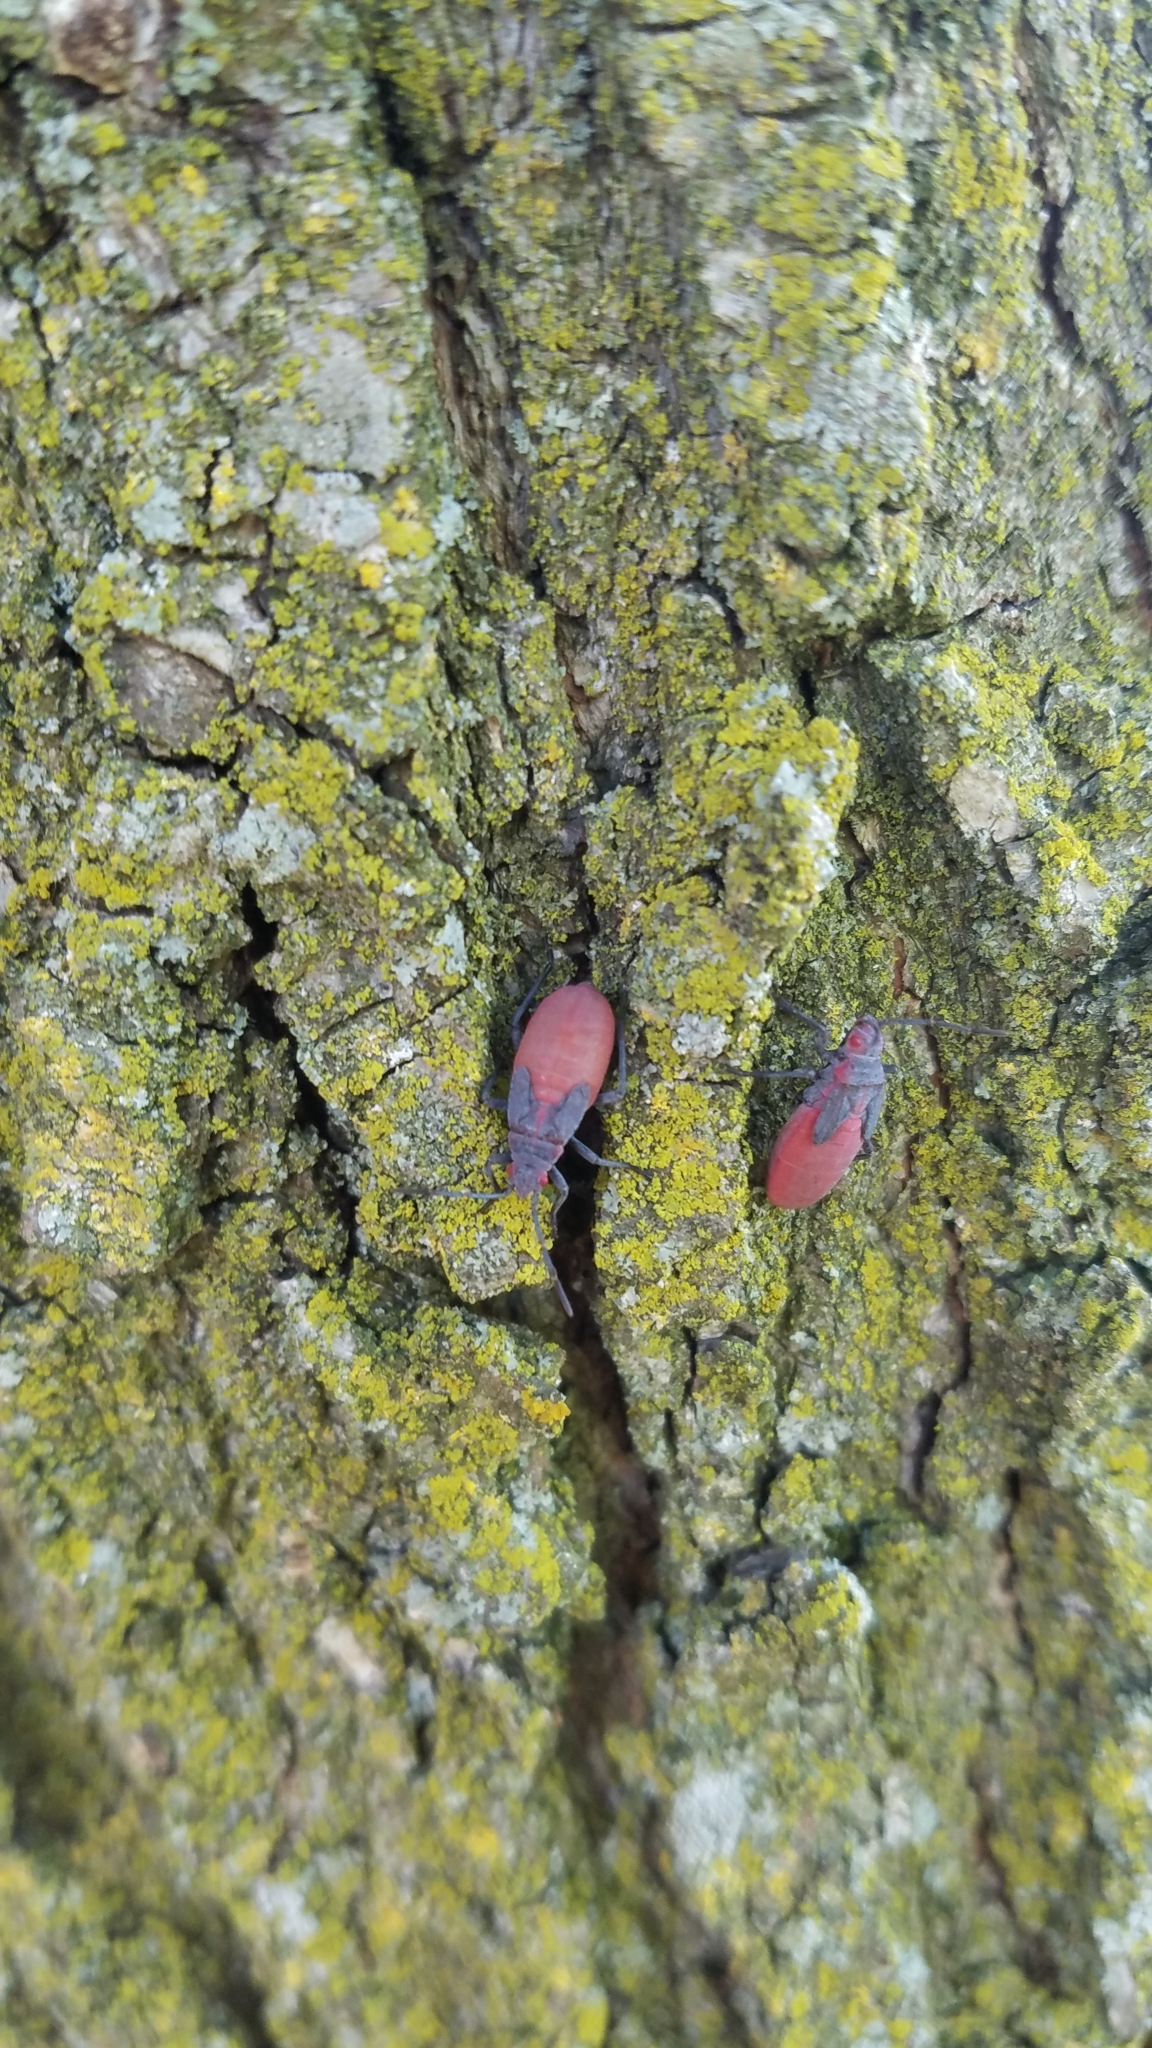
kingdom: Animalia
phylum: Arthropoda
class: Insecta
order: Hemiptera
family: Rhopalidae
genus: Jadera
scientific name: Jadera haematoloma
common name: Red-shouldered bug
